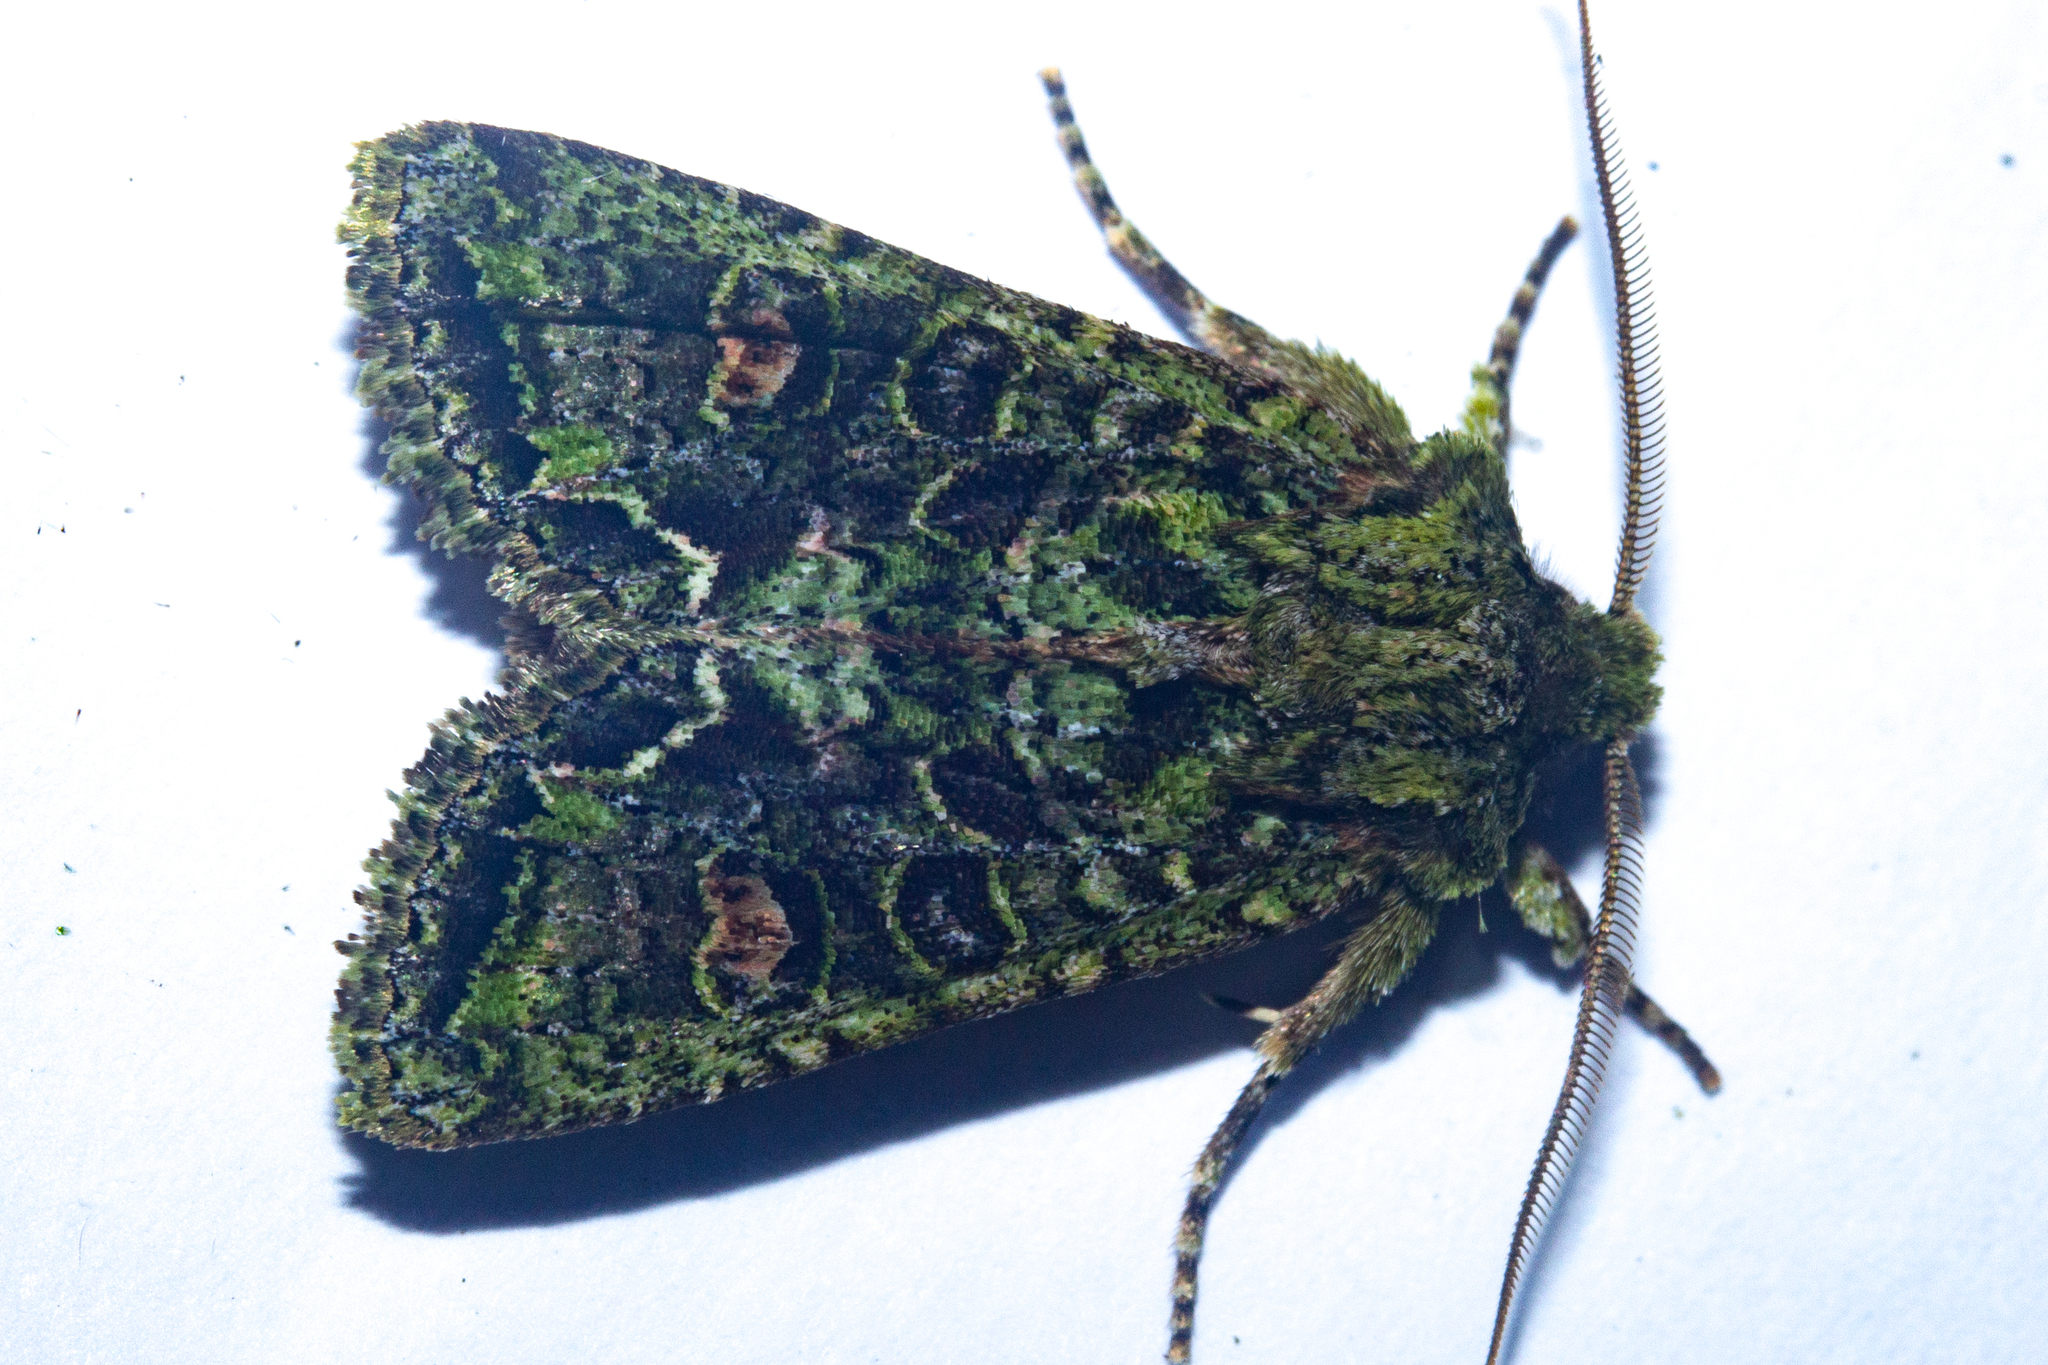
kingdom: Animalia
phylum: Arthropoda
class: Insecta
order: Lepidoptera
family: Noctuidae
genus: Ichneutica
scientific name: Ichneutica
